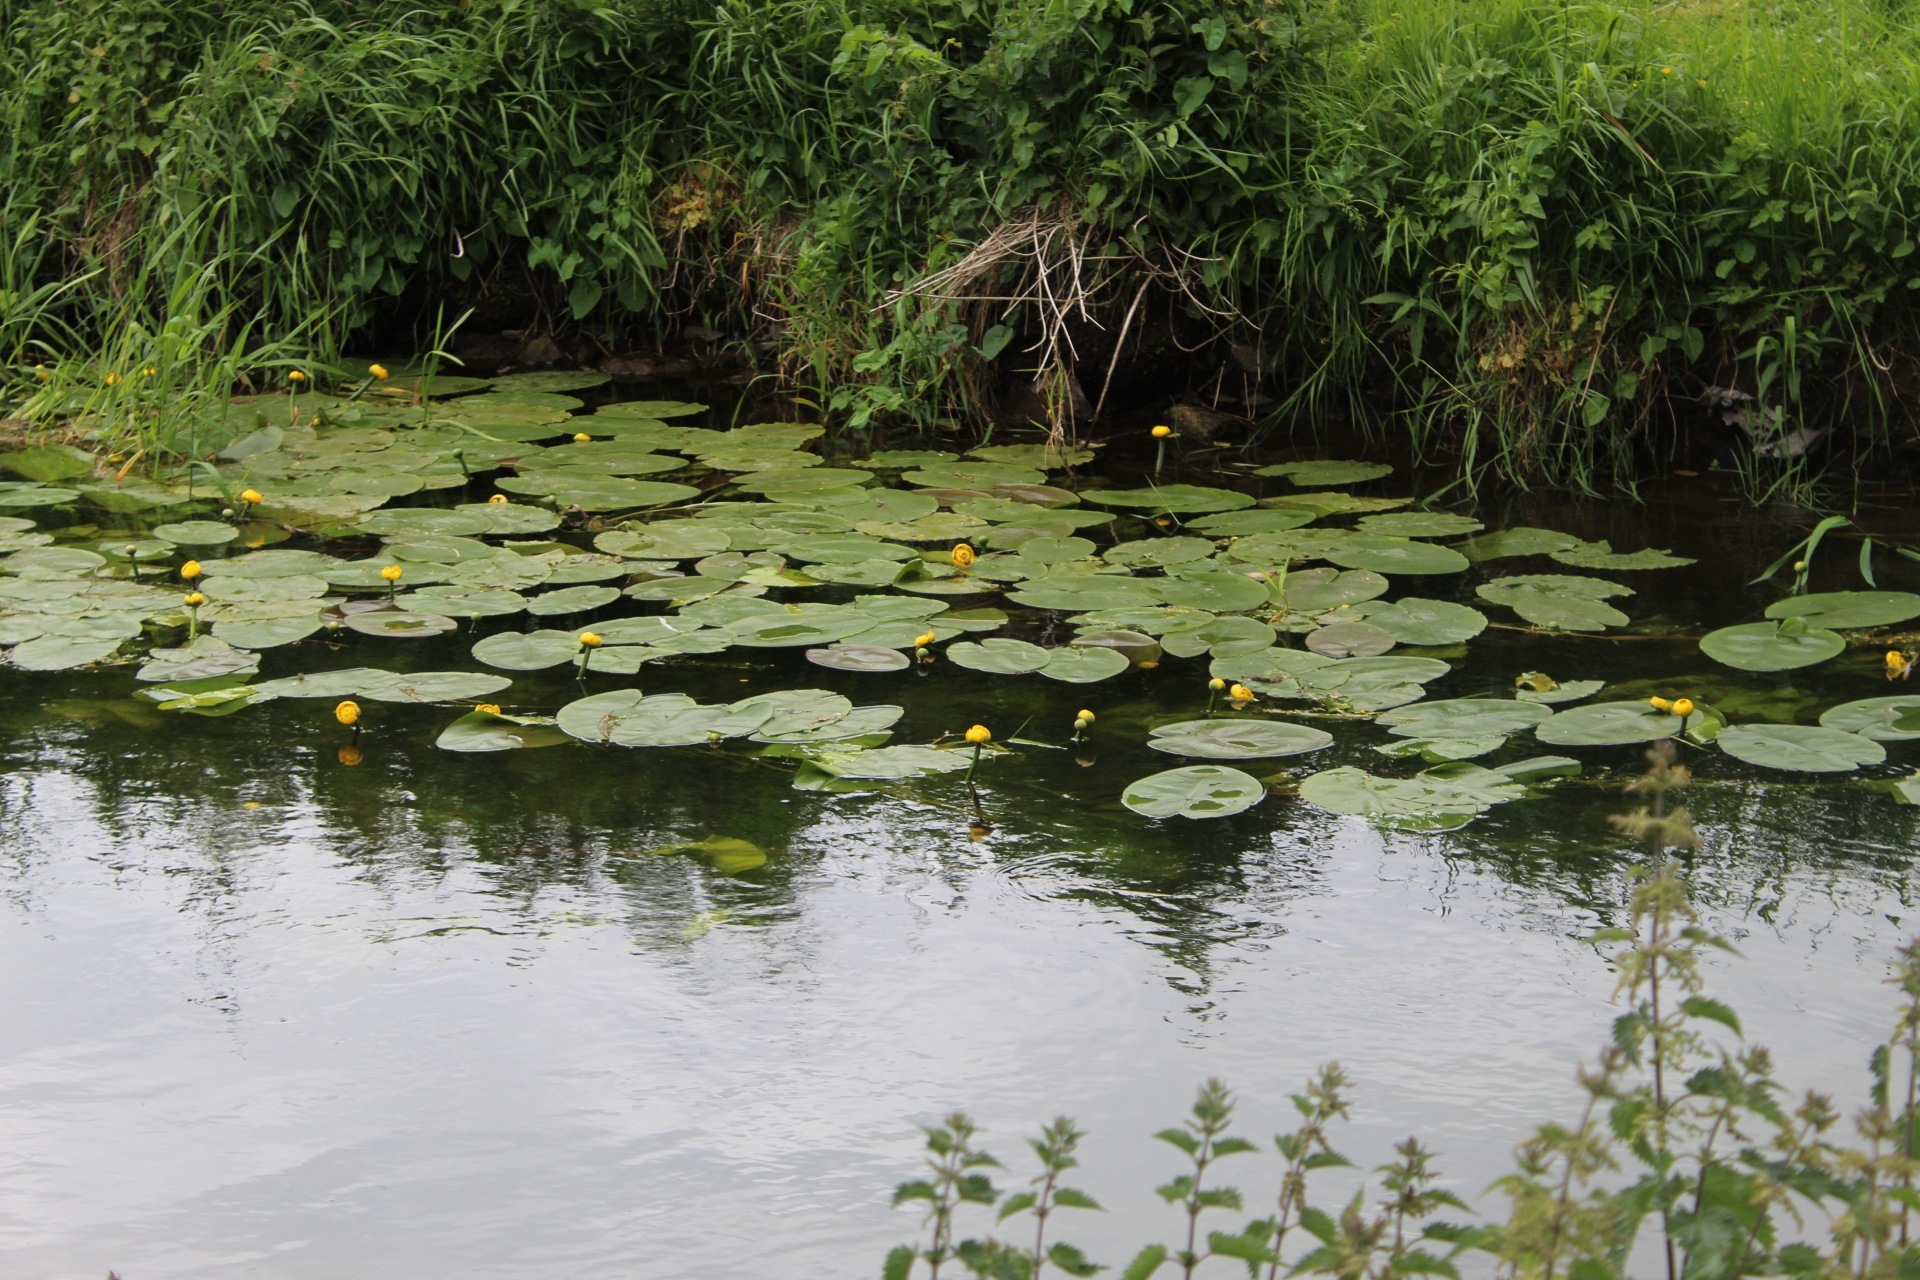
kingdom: Plantae
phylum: Tracheophyta
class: Magnoliopsida
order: Nymphaeales
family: Nymphaeaceae
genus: Nuphar
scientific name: Nuphar lutea
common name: Yellow water-lily
